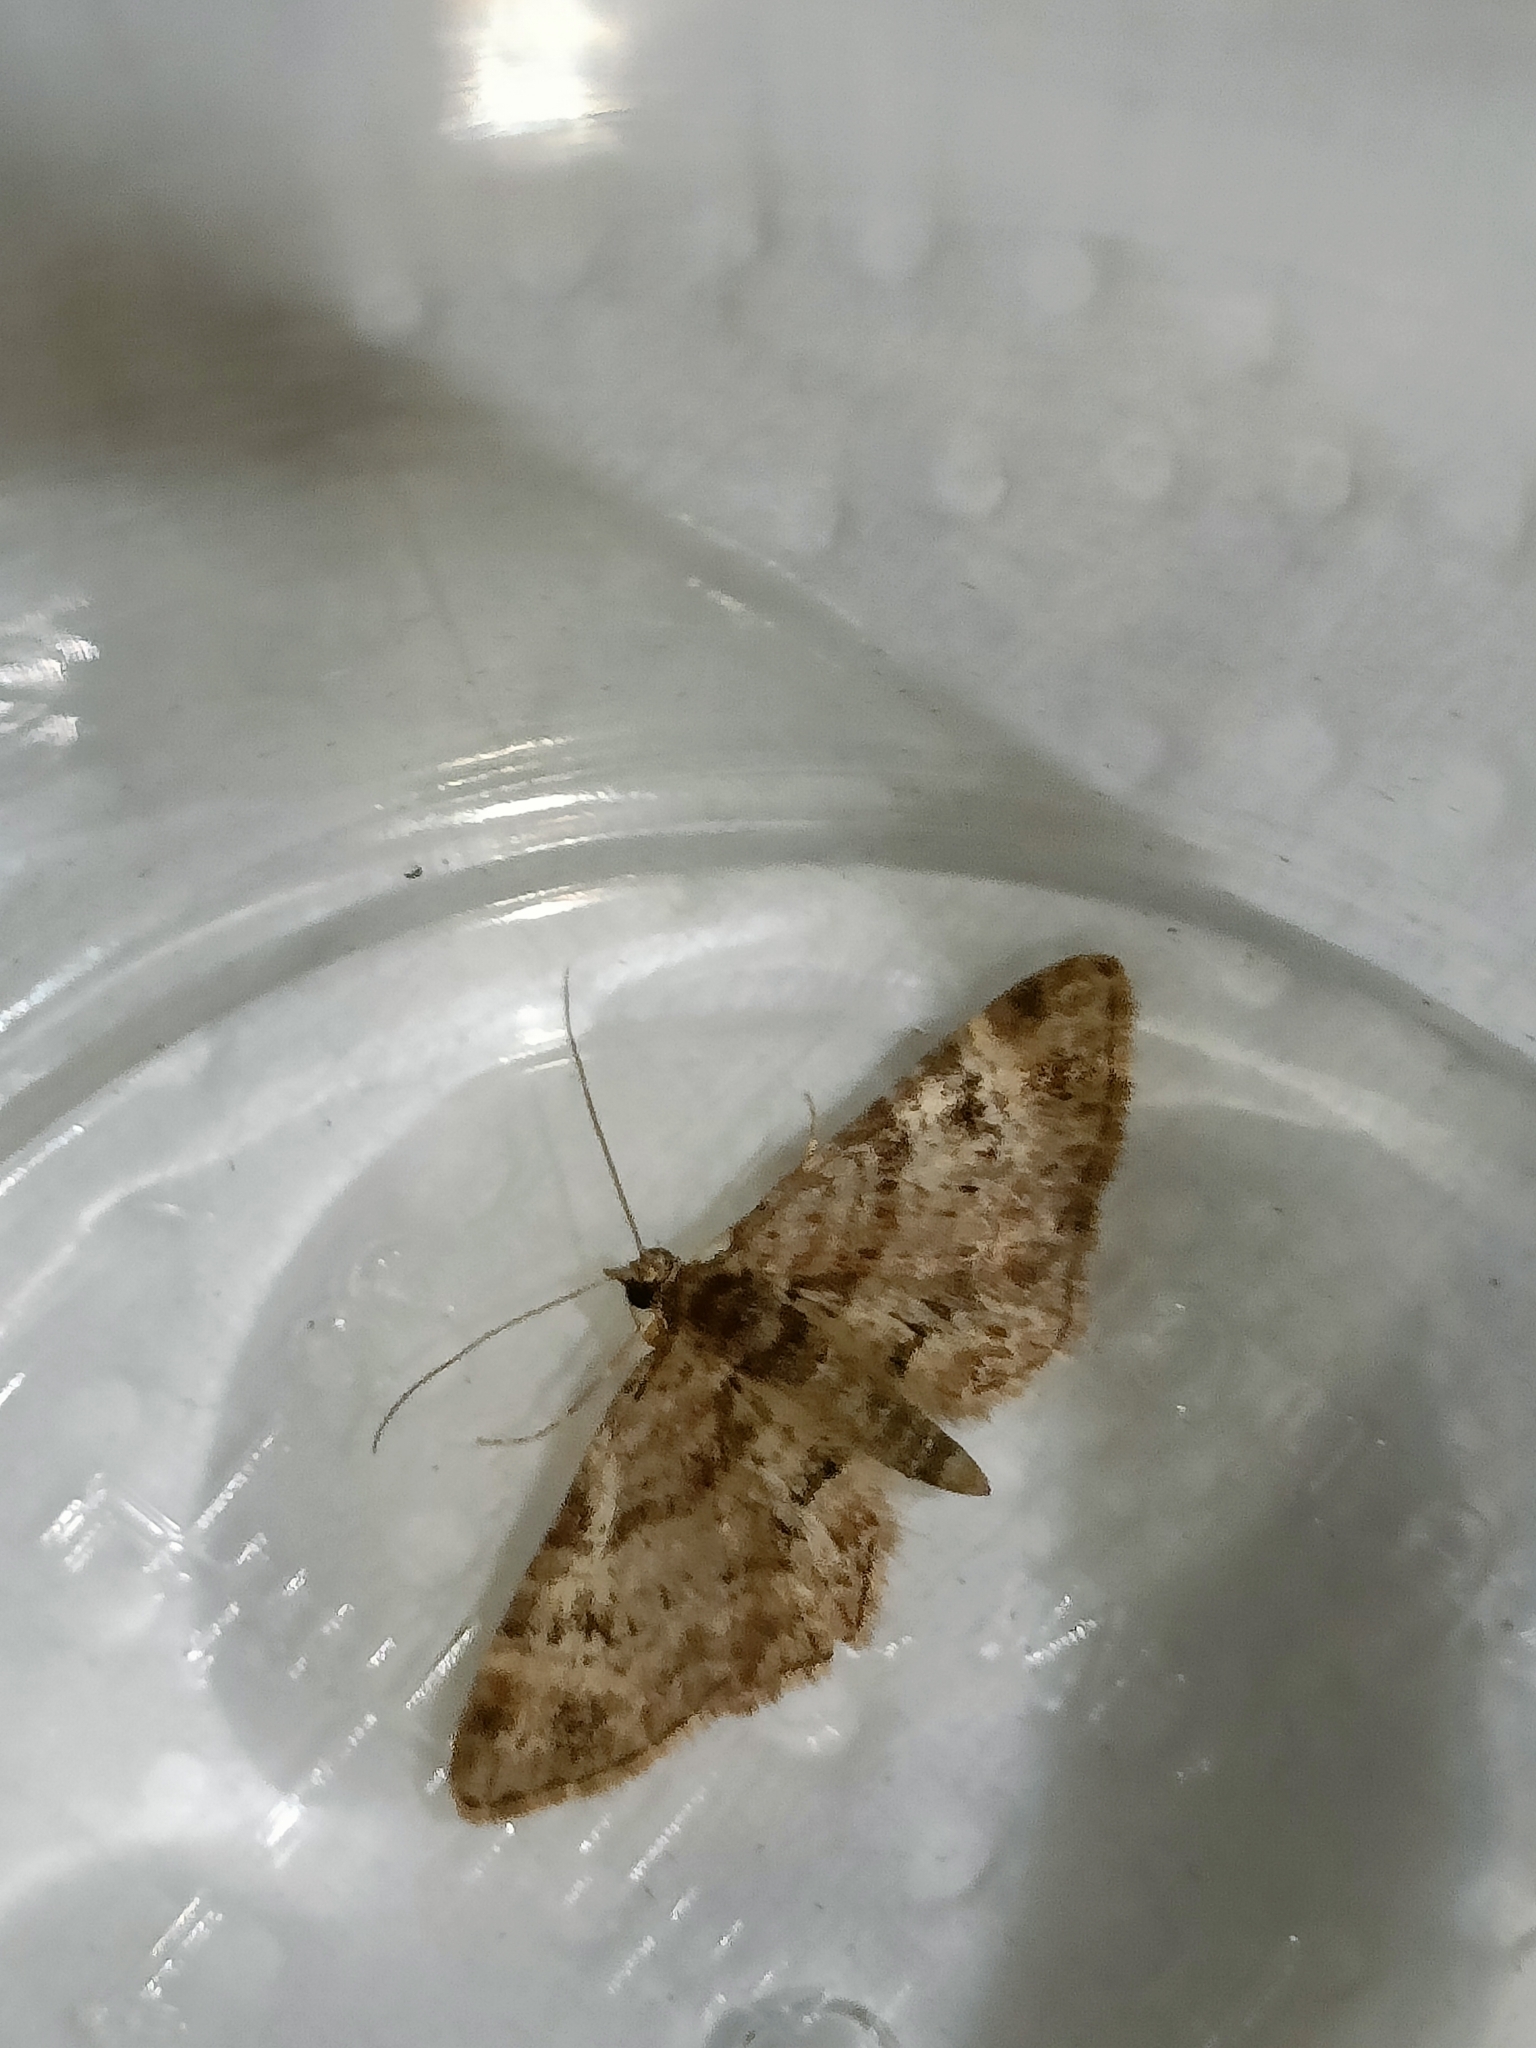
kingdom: Animalia
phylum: Arthropoda
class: Insecta
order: Lepidoptera
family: Geometridae
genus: Gymnoscelis
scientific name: Gymnoscelis rufifasciata
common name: Double-striped pug
